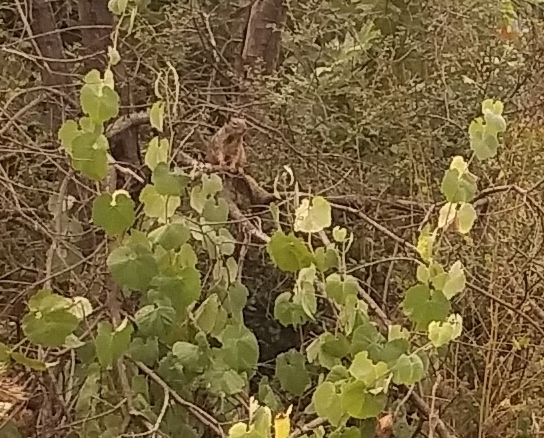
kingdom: Animalia
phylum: Chordata
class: Mammalia
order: Rodentia
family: Sciuridae
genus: Otospermophilus
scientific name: Otospermophilus beecheyi
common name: California ground squirrel
